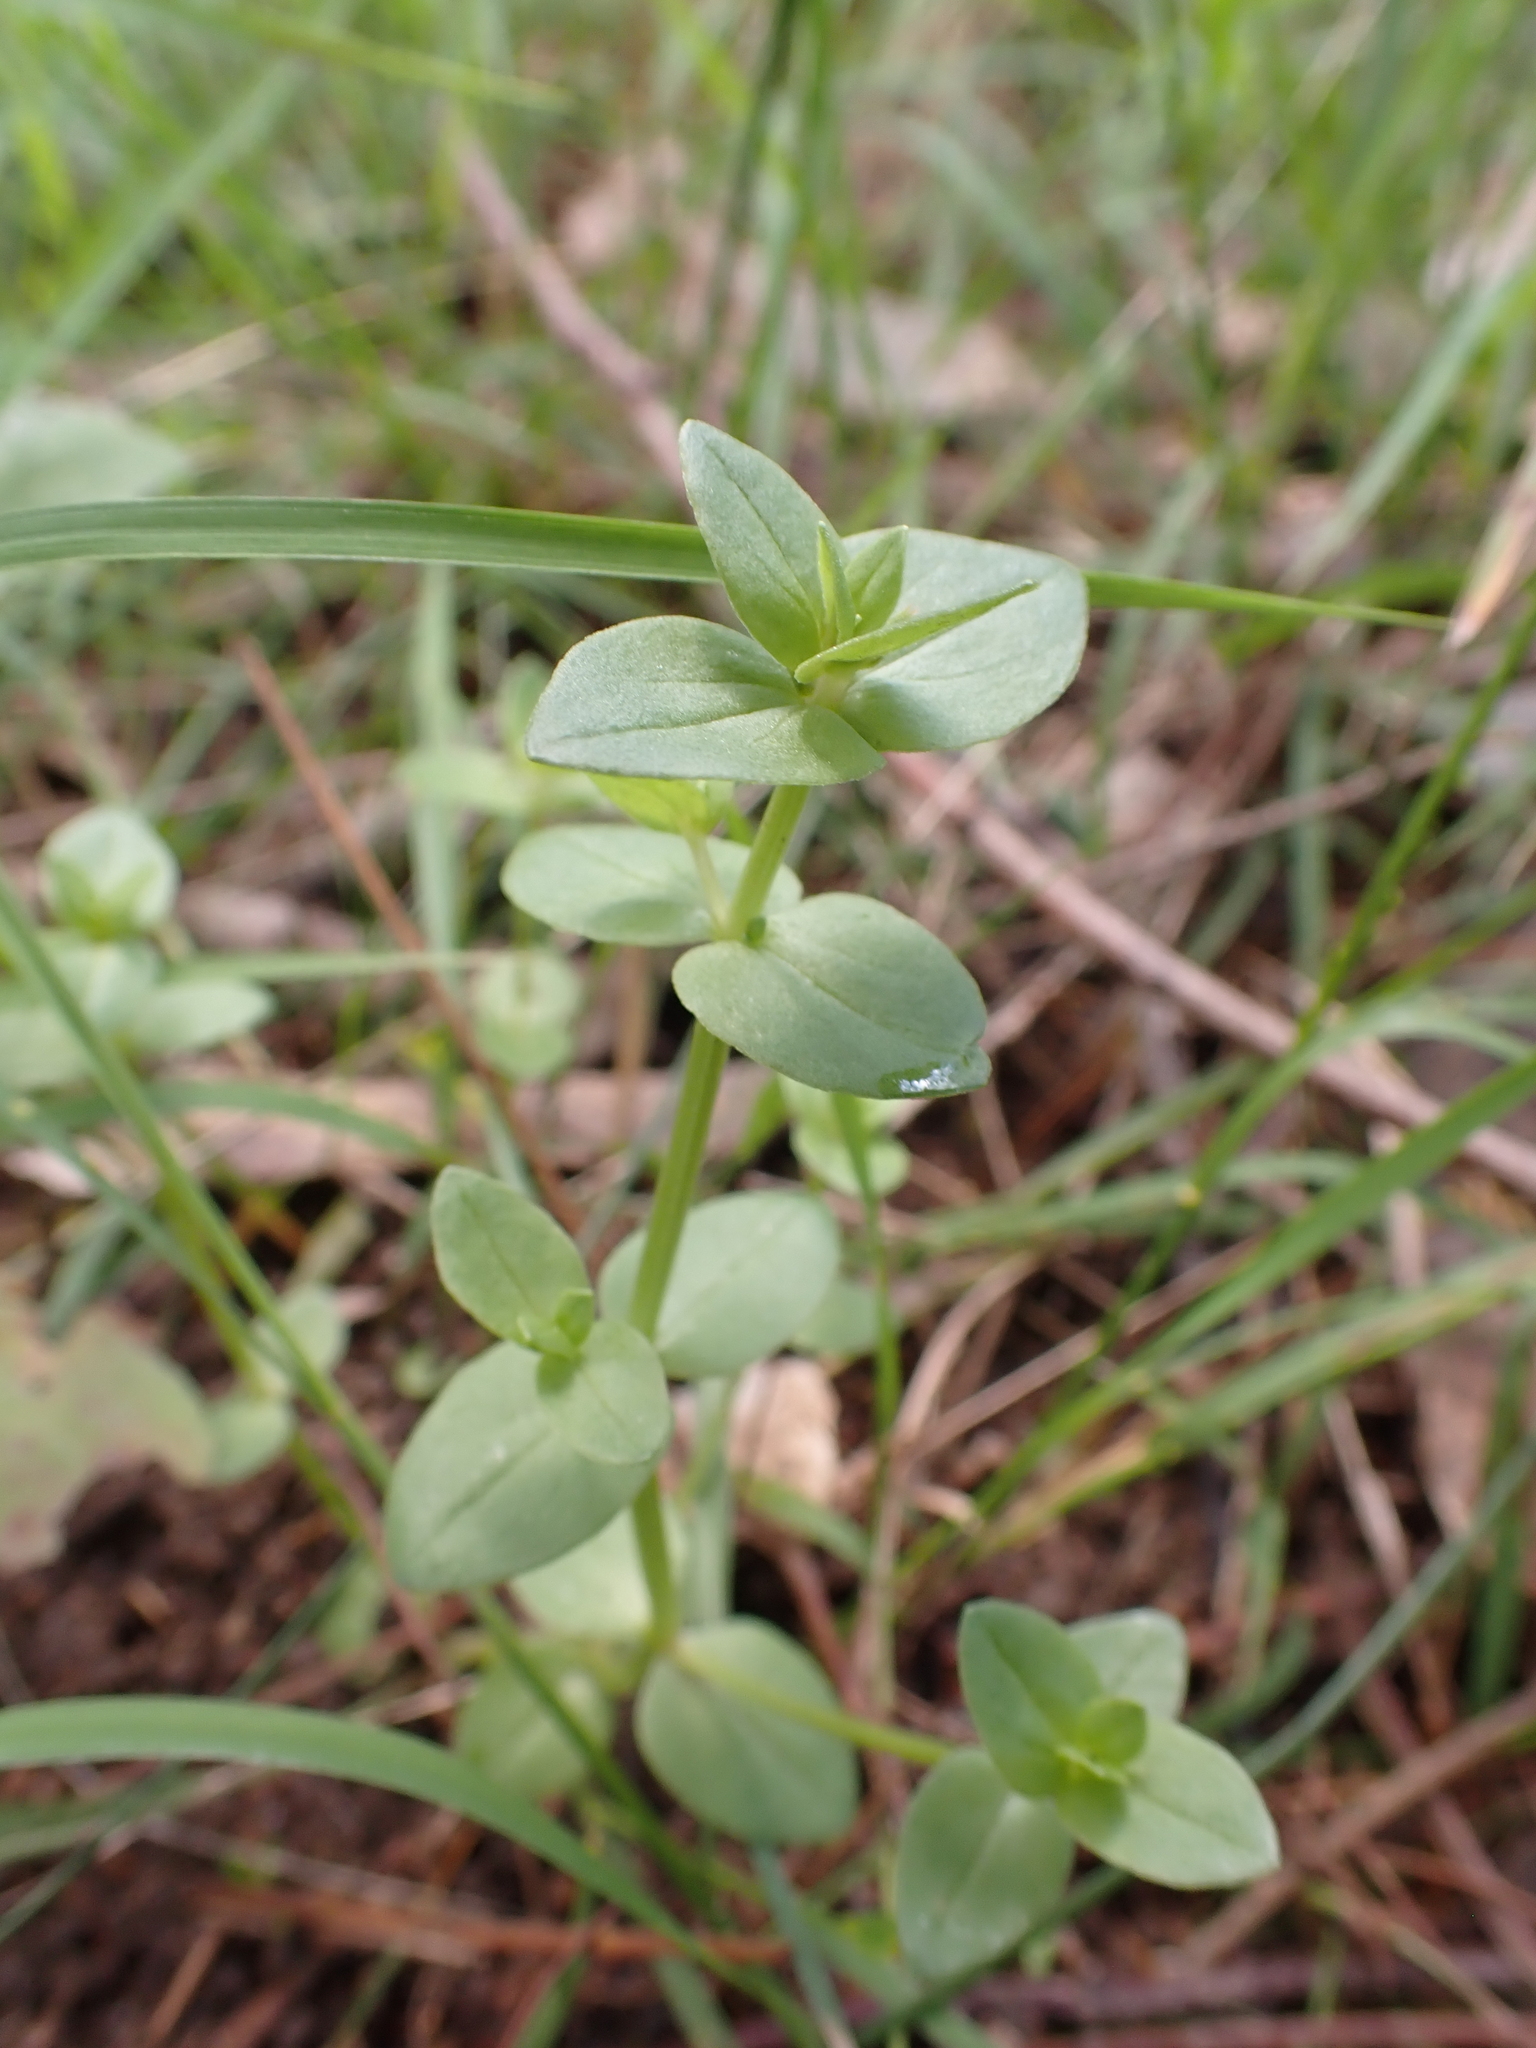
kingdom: Plantae
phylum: Tracheophyta
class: Magnoliopsida
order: Ericales
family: Primulaceae
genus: Lysimachia
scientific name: Lysimachia arvensis
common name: Scarlet pimpernel
